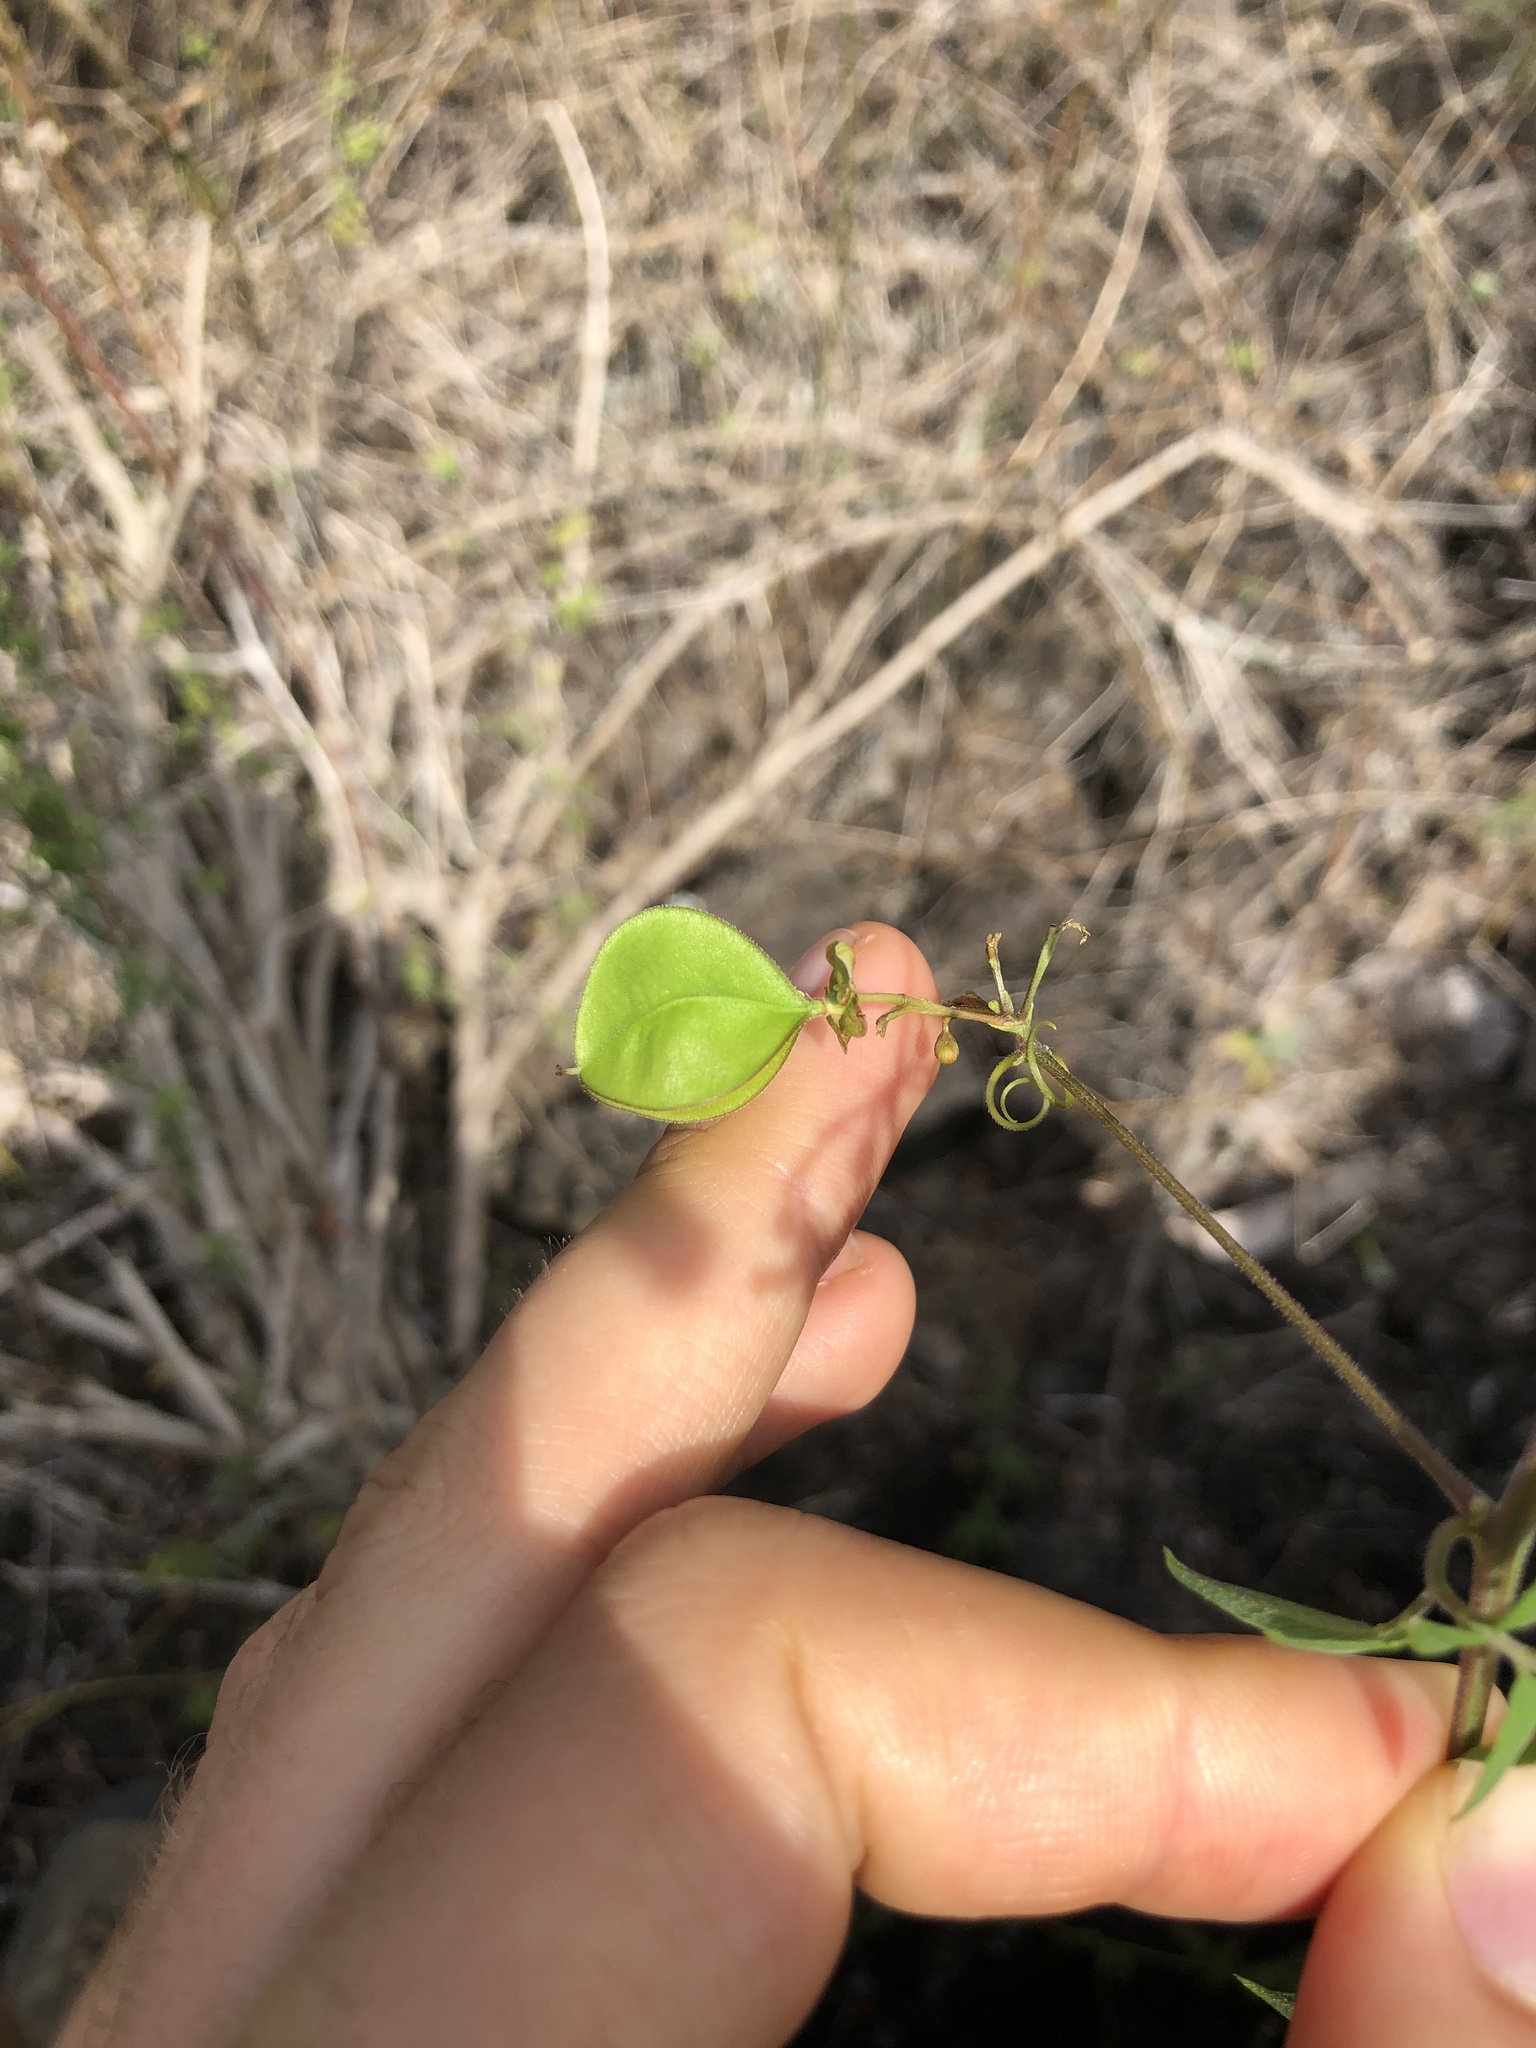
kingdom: Plantae
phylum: Tracheophyta
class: Magnoliopsida
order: Sapindales
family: Sapindaceae
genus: Cardiospermum
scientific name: Cardiospermum corindum
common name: Faux persil
